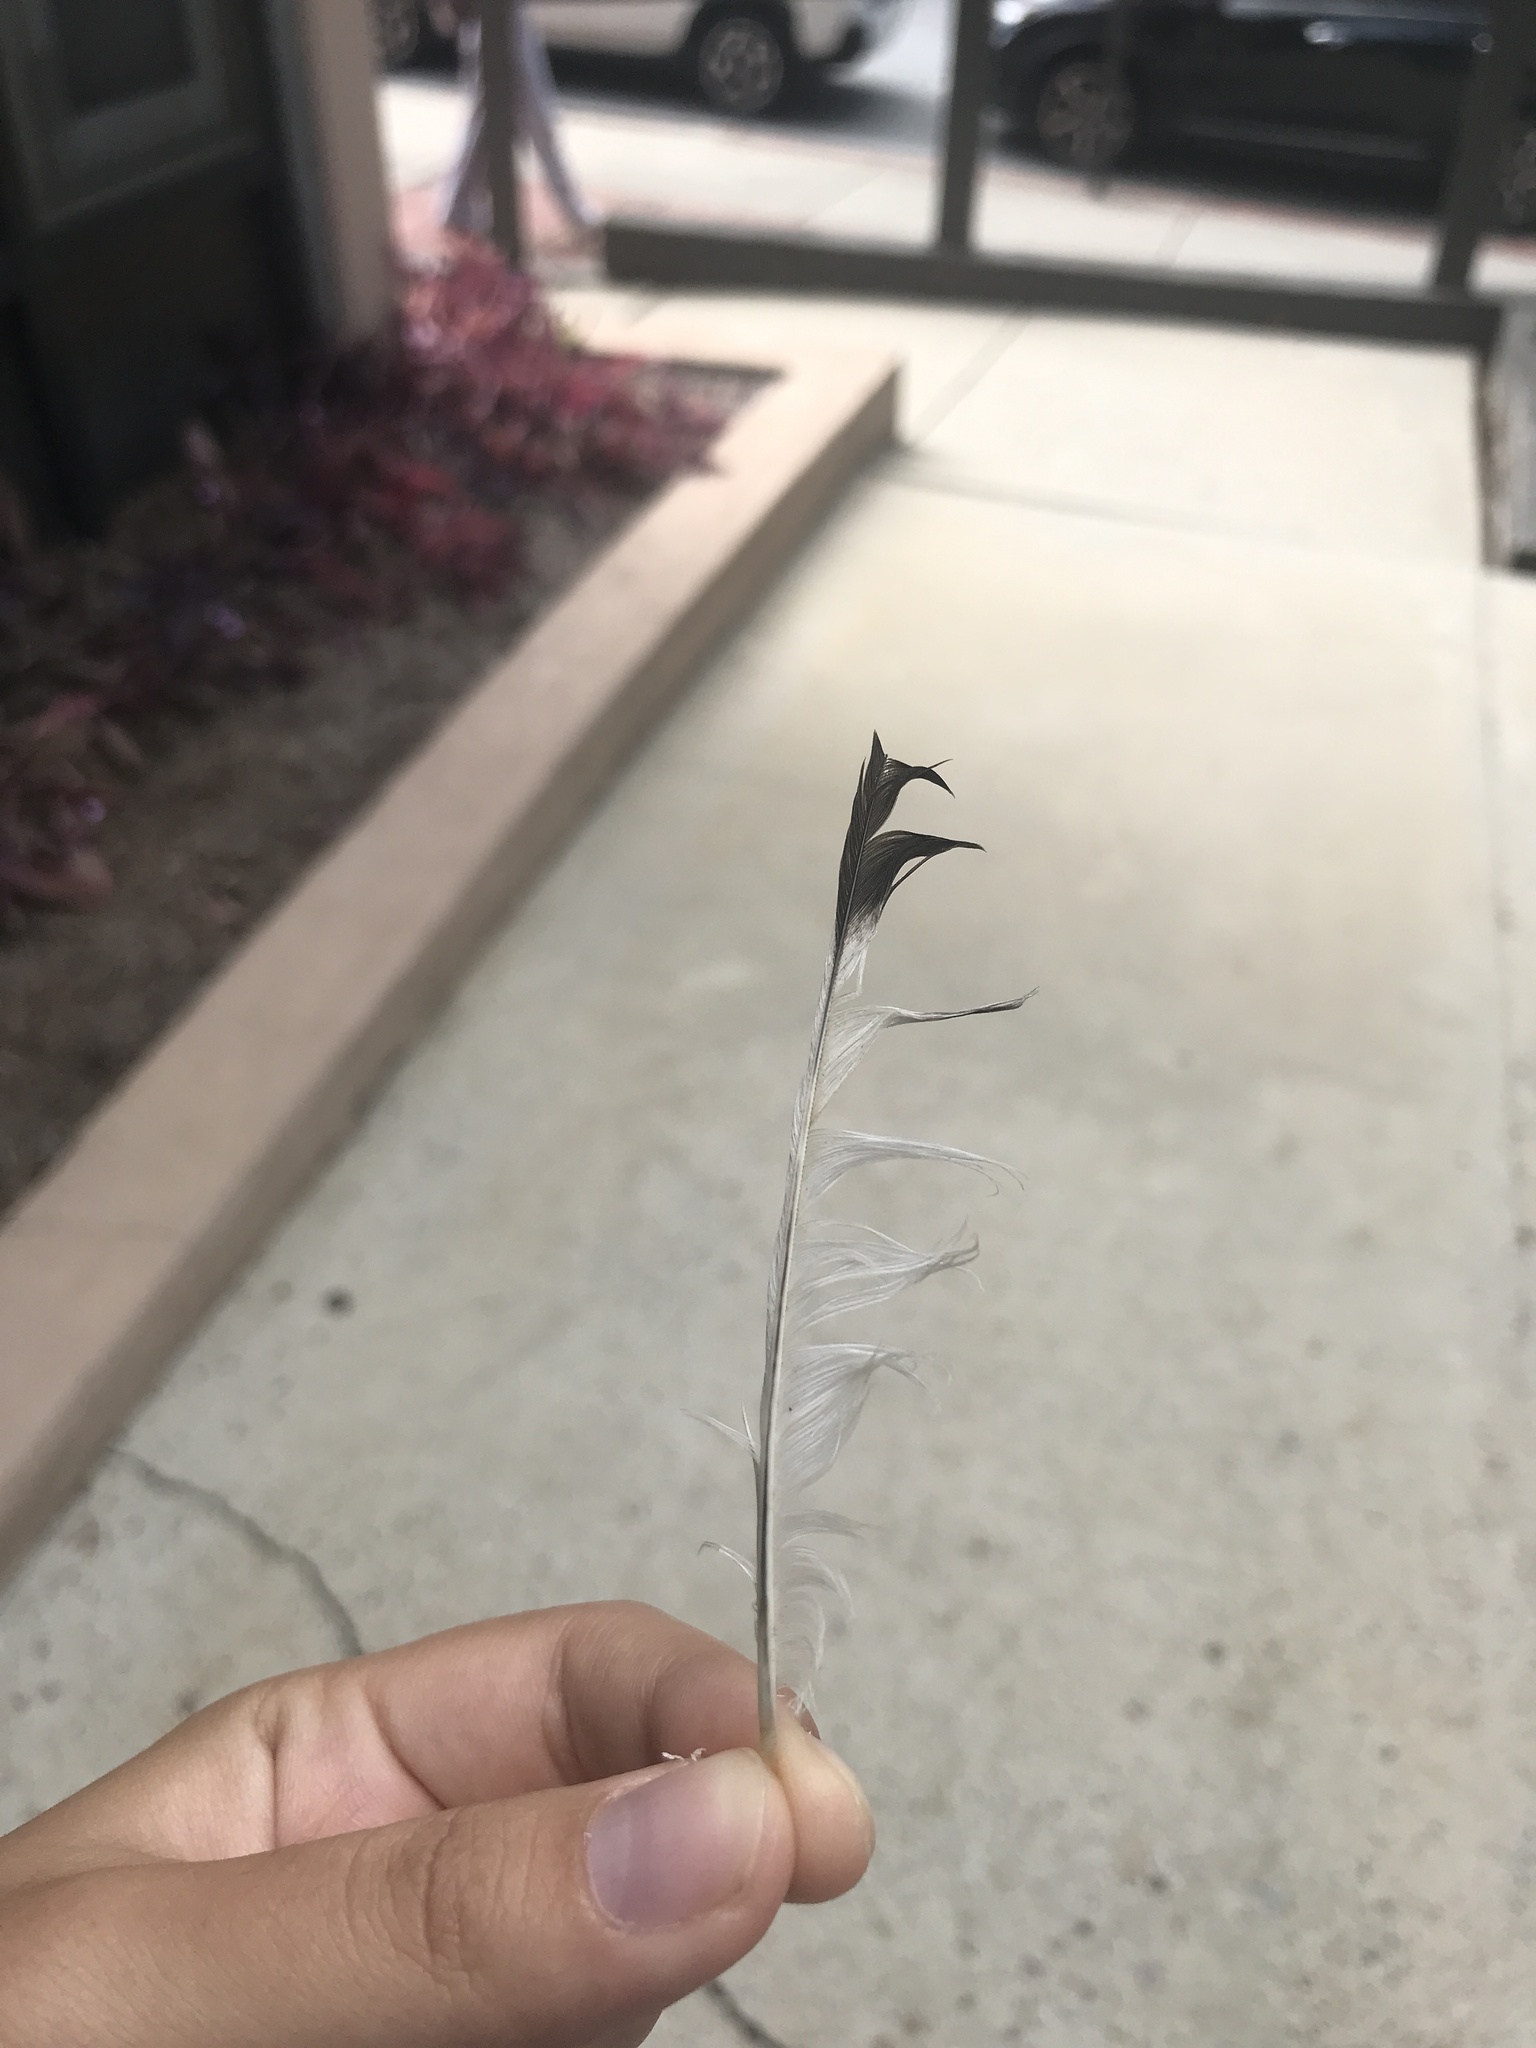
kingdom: Animalia
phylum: Chordata
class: Aves
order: Passeriformes
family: Mimidae
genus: Mimus
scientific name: Mimus polyglottos
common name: Northern mockingbird
